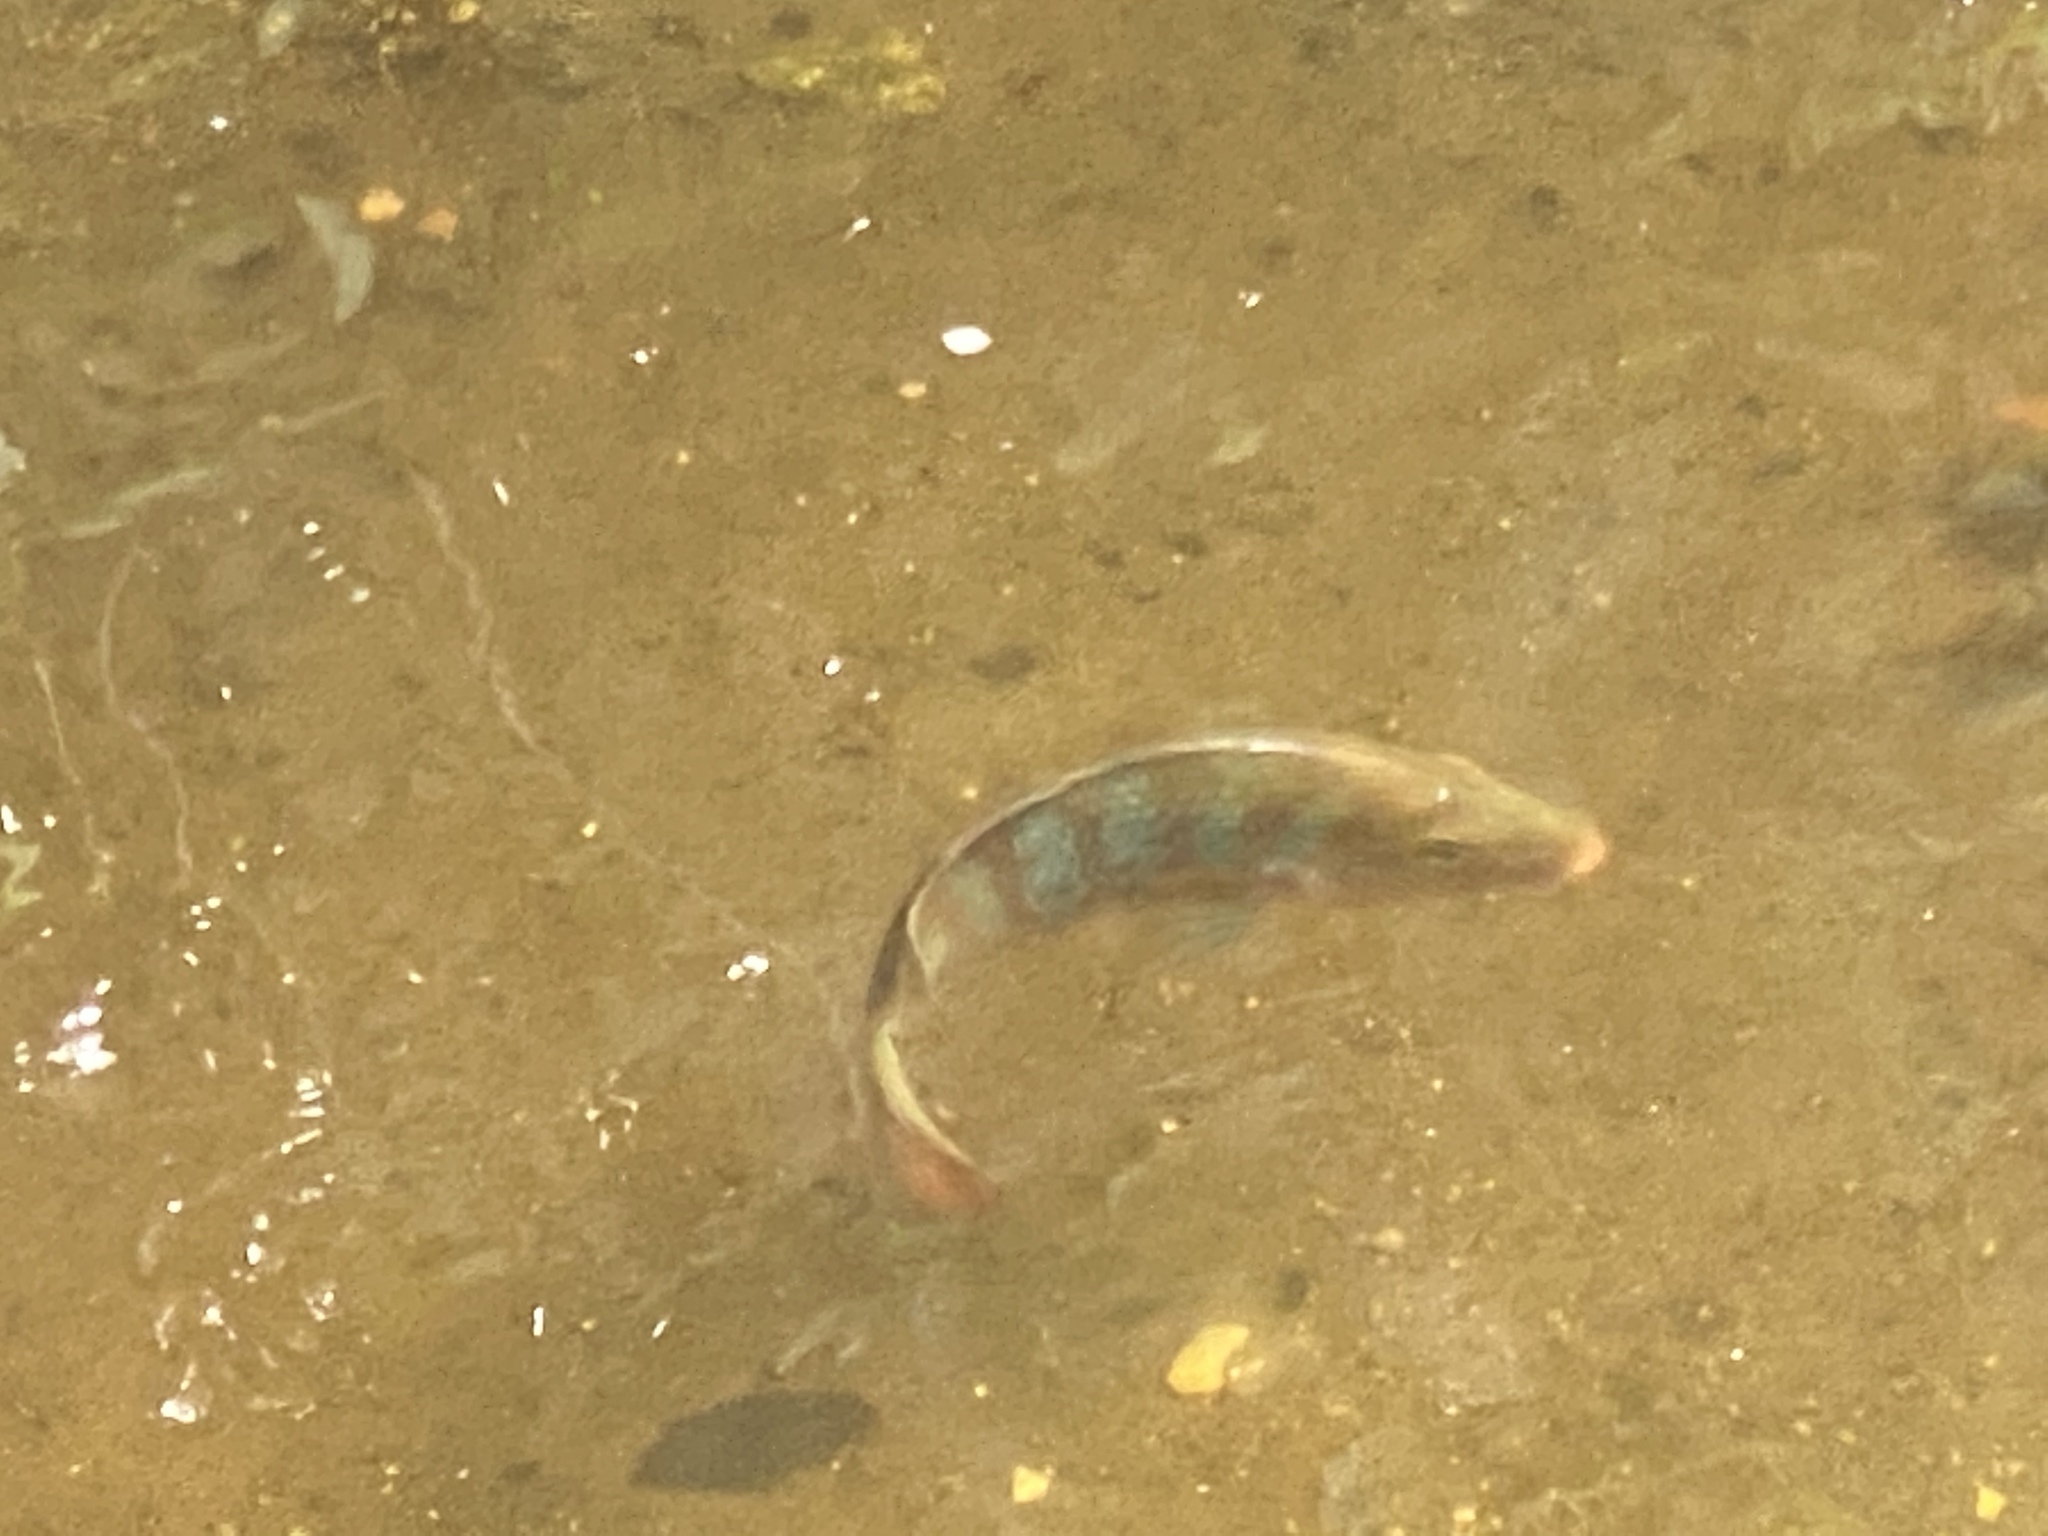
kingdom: Animalia
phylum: Chordata
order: Perciformes
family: Cichlidae
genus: Mayaheros
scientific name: Mayaheros urophthalmus
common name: Mayan cichlid
